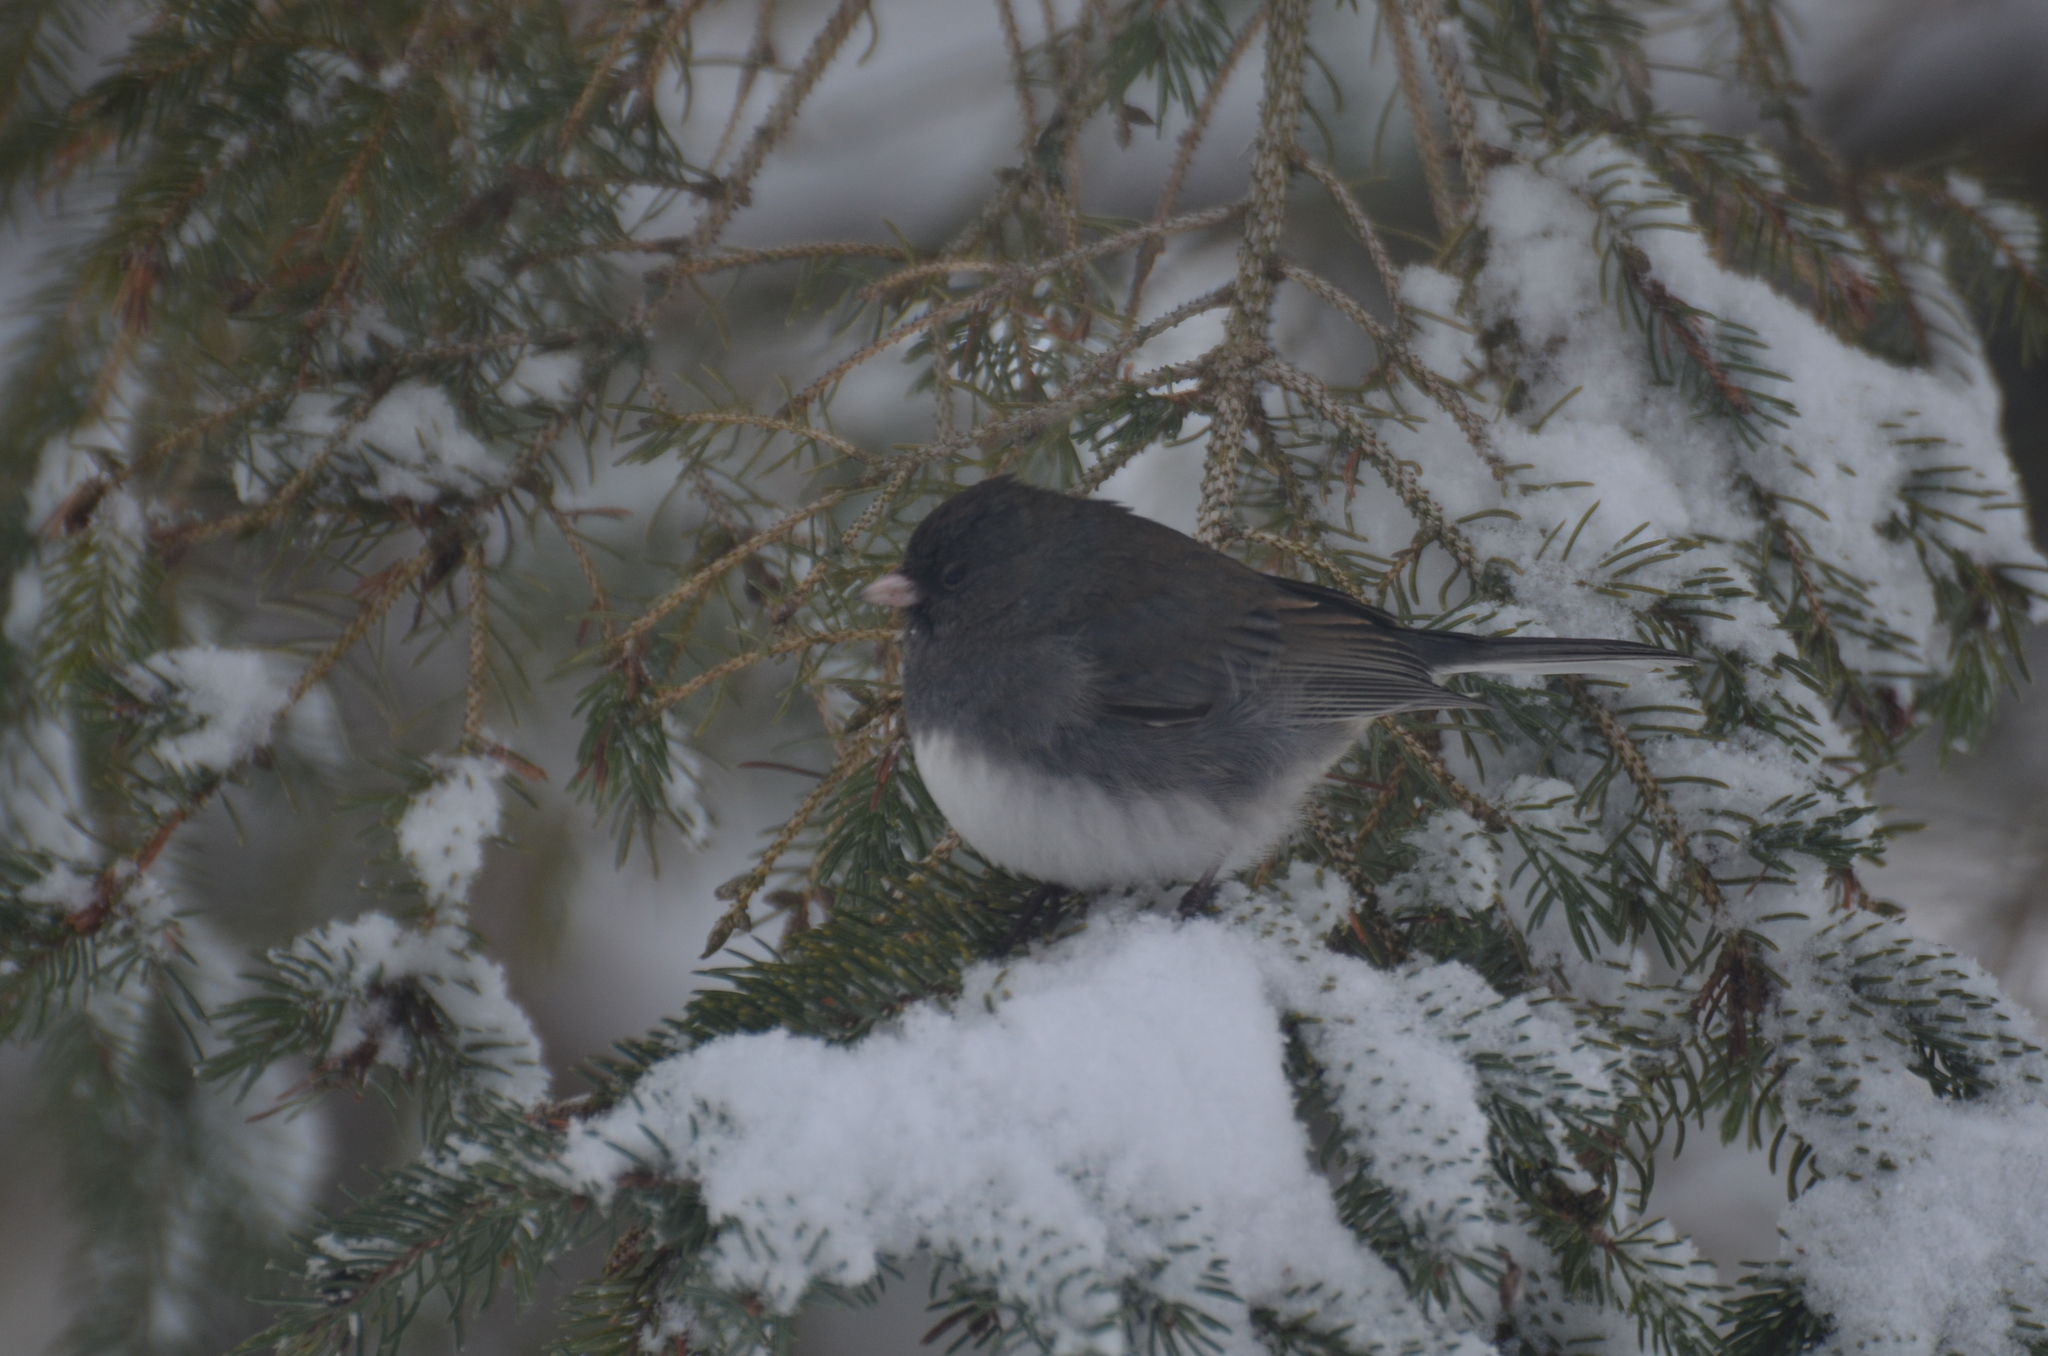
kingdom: Animalia
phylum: Chordata
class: Aves
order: Passeriformes
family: Passerellidae
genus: Junco
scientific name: Junco hyemalis
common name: Dark-eyed junco
